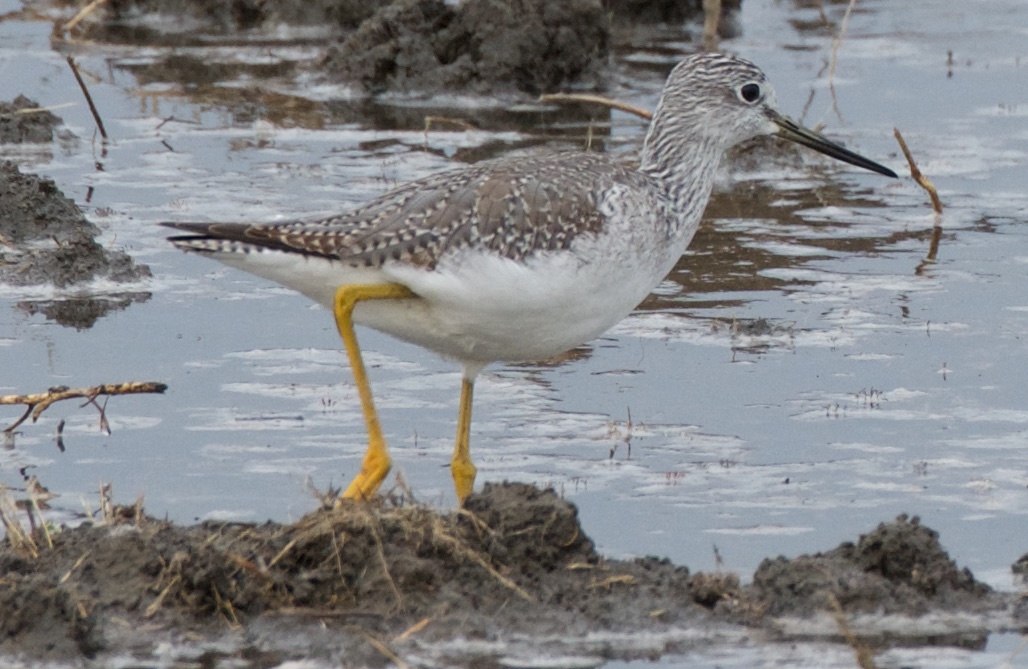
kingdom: Animalia
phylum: Chordata
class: Aves
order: Charadriiformes
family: Scolopacidae
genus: Tringa
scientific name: Tringa melanoleuca
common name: Greater yellowlegs
